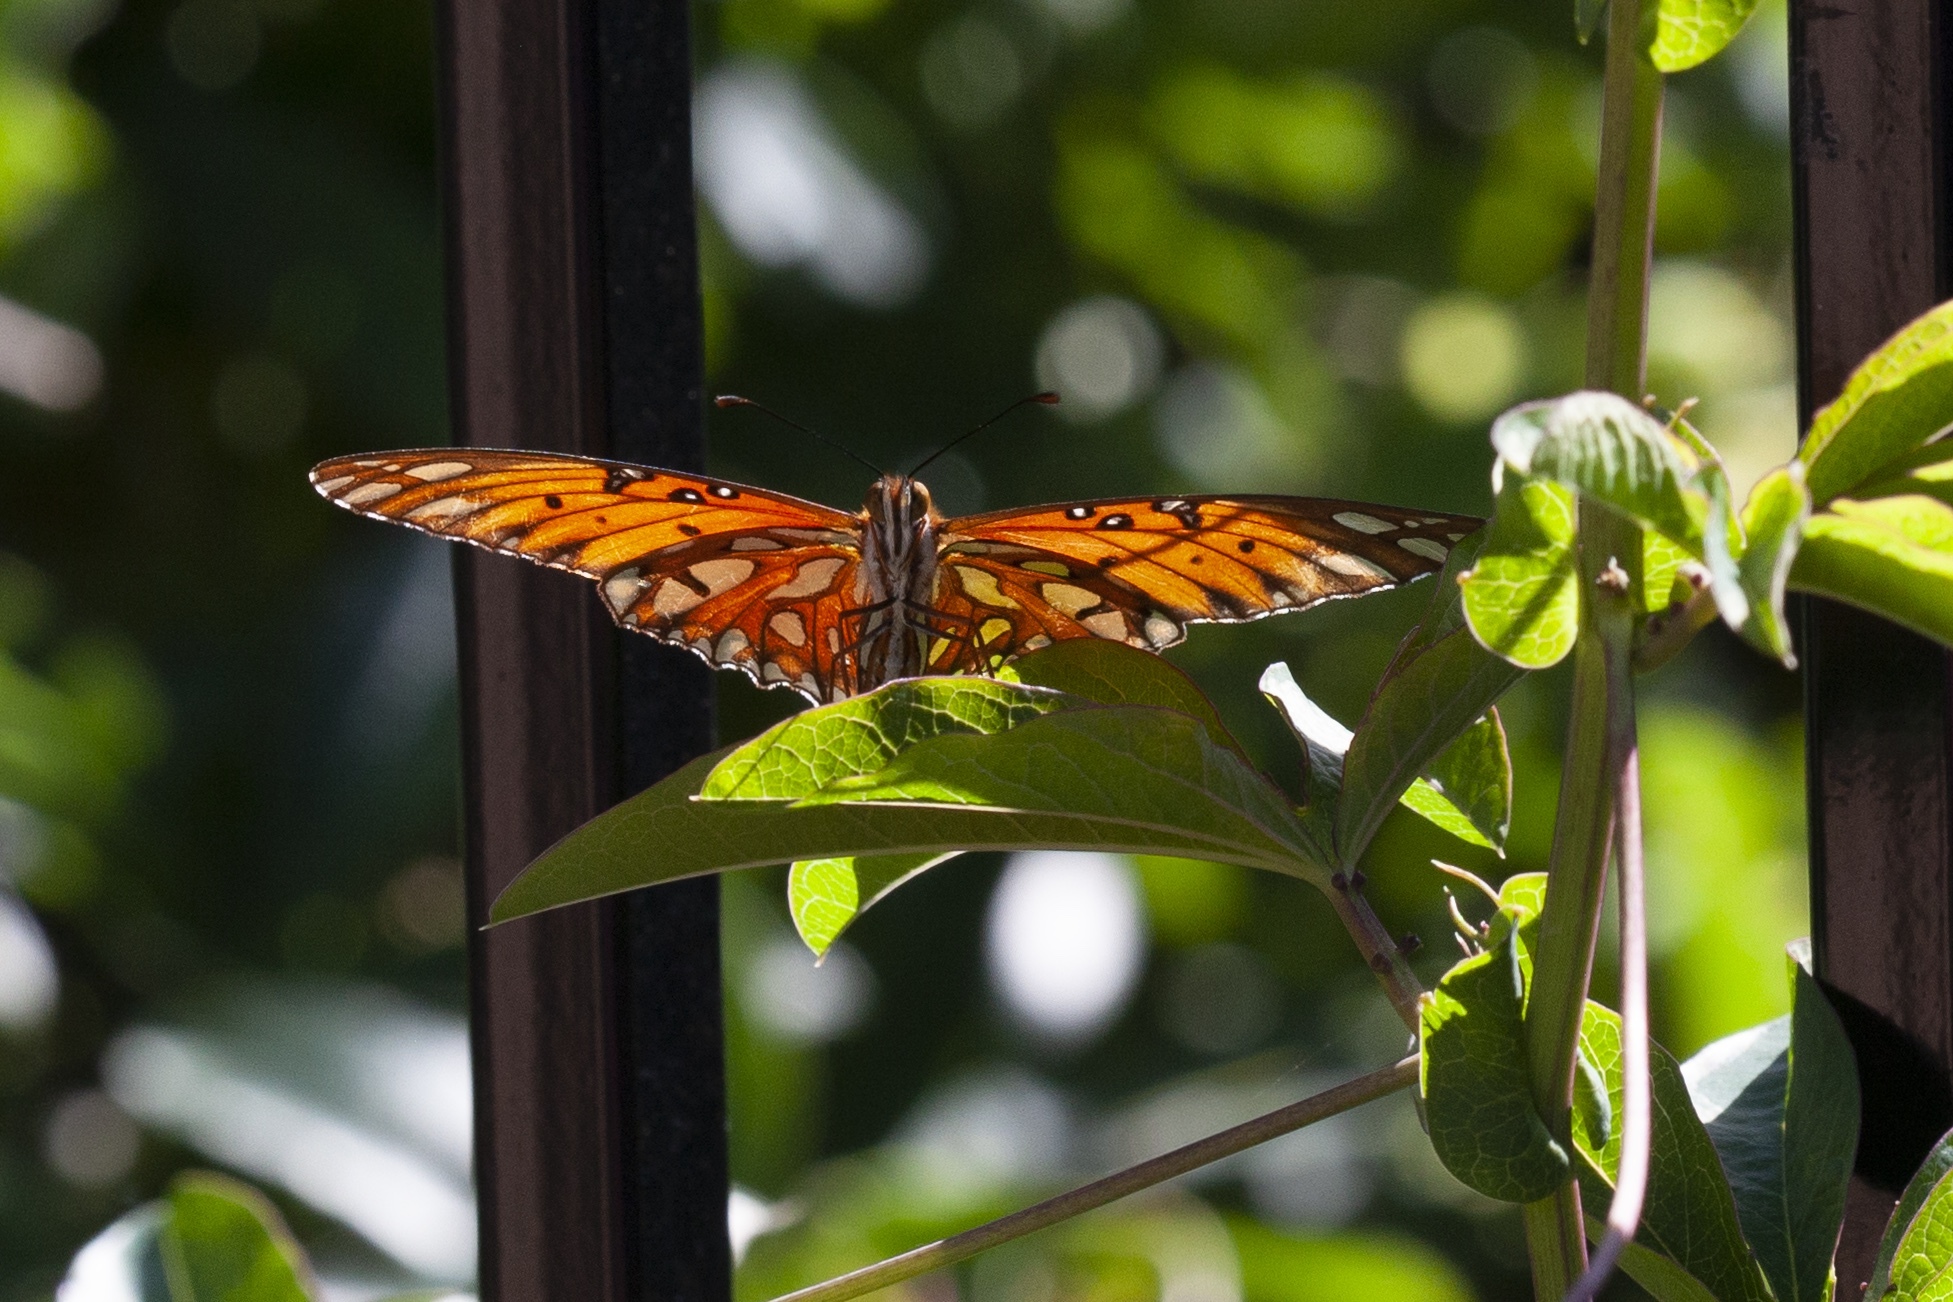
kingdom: Animalia
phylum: Arthropoda
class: Insecta
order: Lepidoptera
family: Nymphalidae
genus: Dione
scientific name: Dione vanillae
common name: Gulf fritillary
